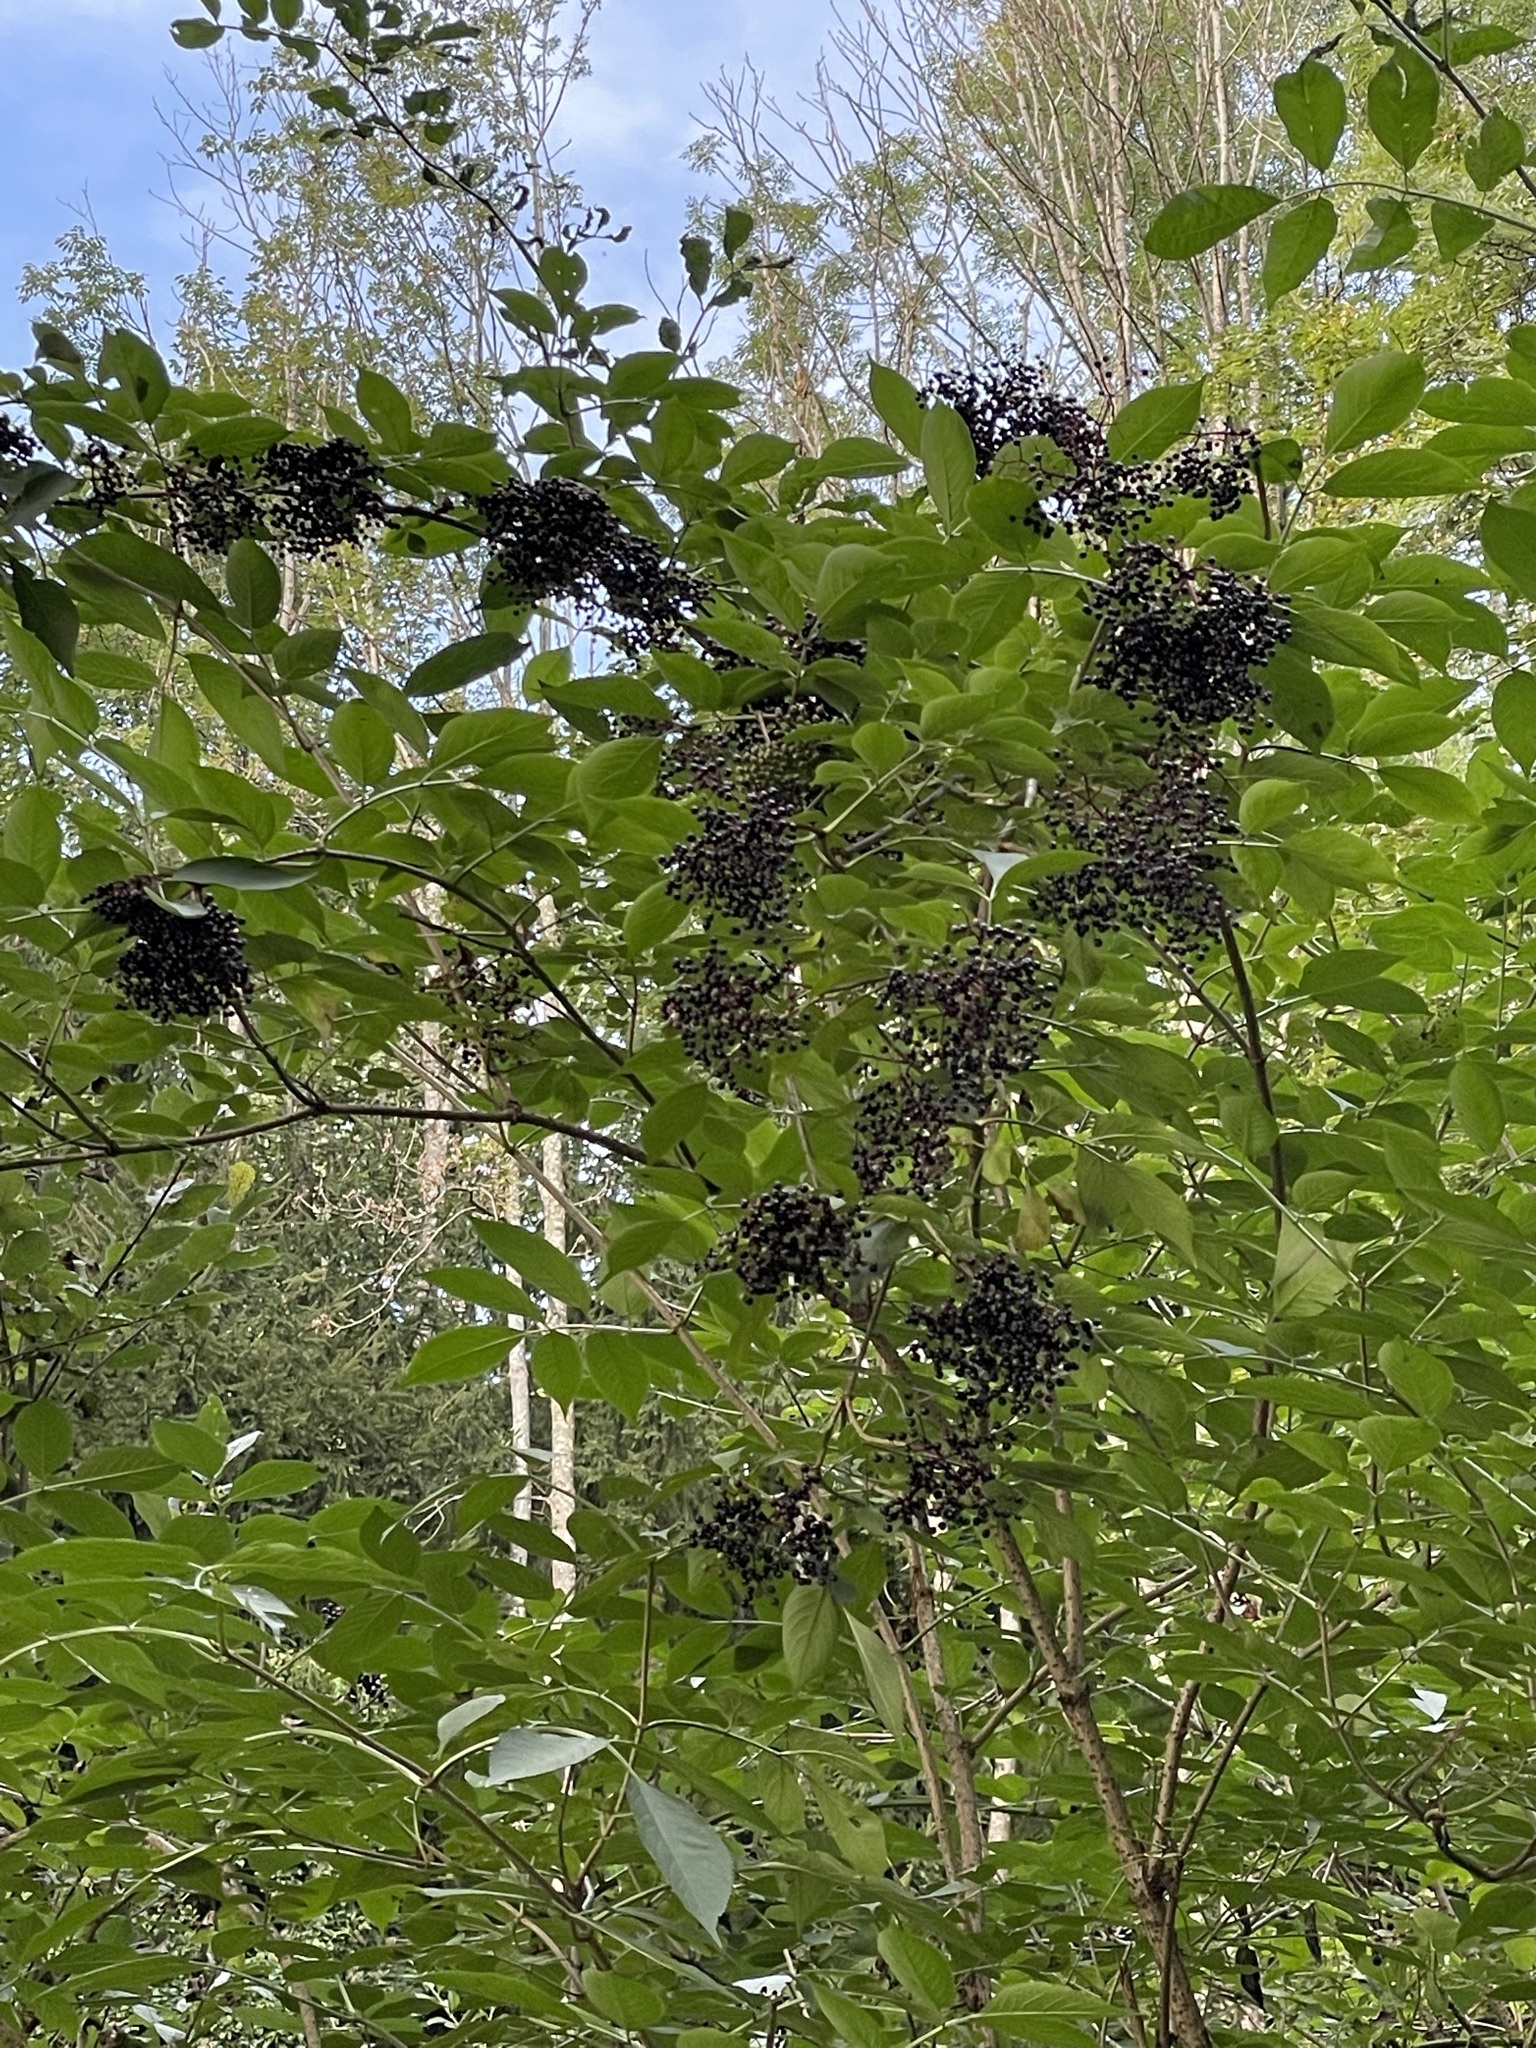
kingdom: Plantae
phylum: Tracheophyta
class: Magnoliopsida
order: Dipsacales
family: Viburnaceae
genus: Sambucus
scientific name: Sambucus nigra
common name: Elder
